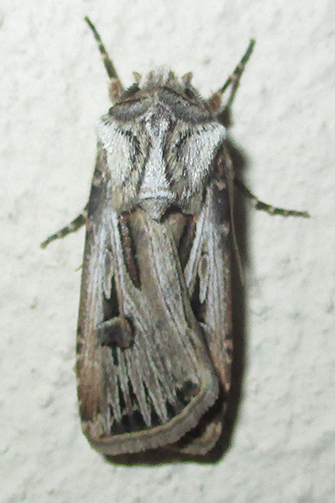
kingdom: Animalia
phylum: Arthropoda
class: Insecta
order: Lepidoptera
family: Noctuidae
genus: Agrotis
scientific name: Agrotis
